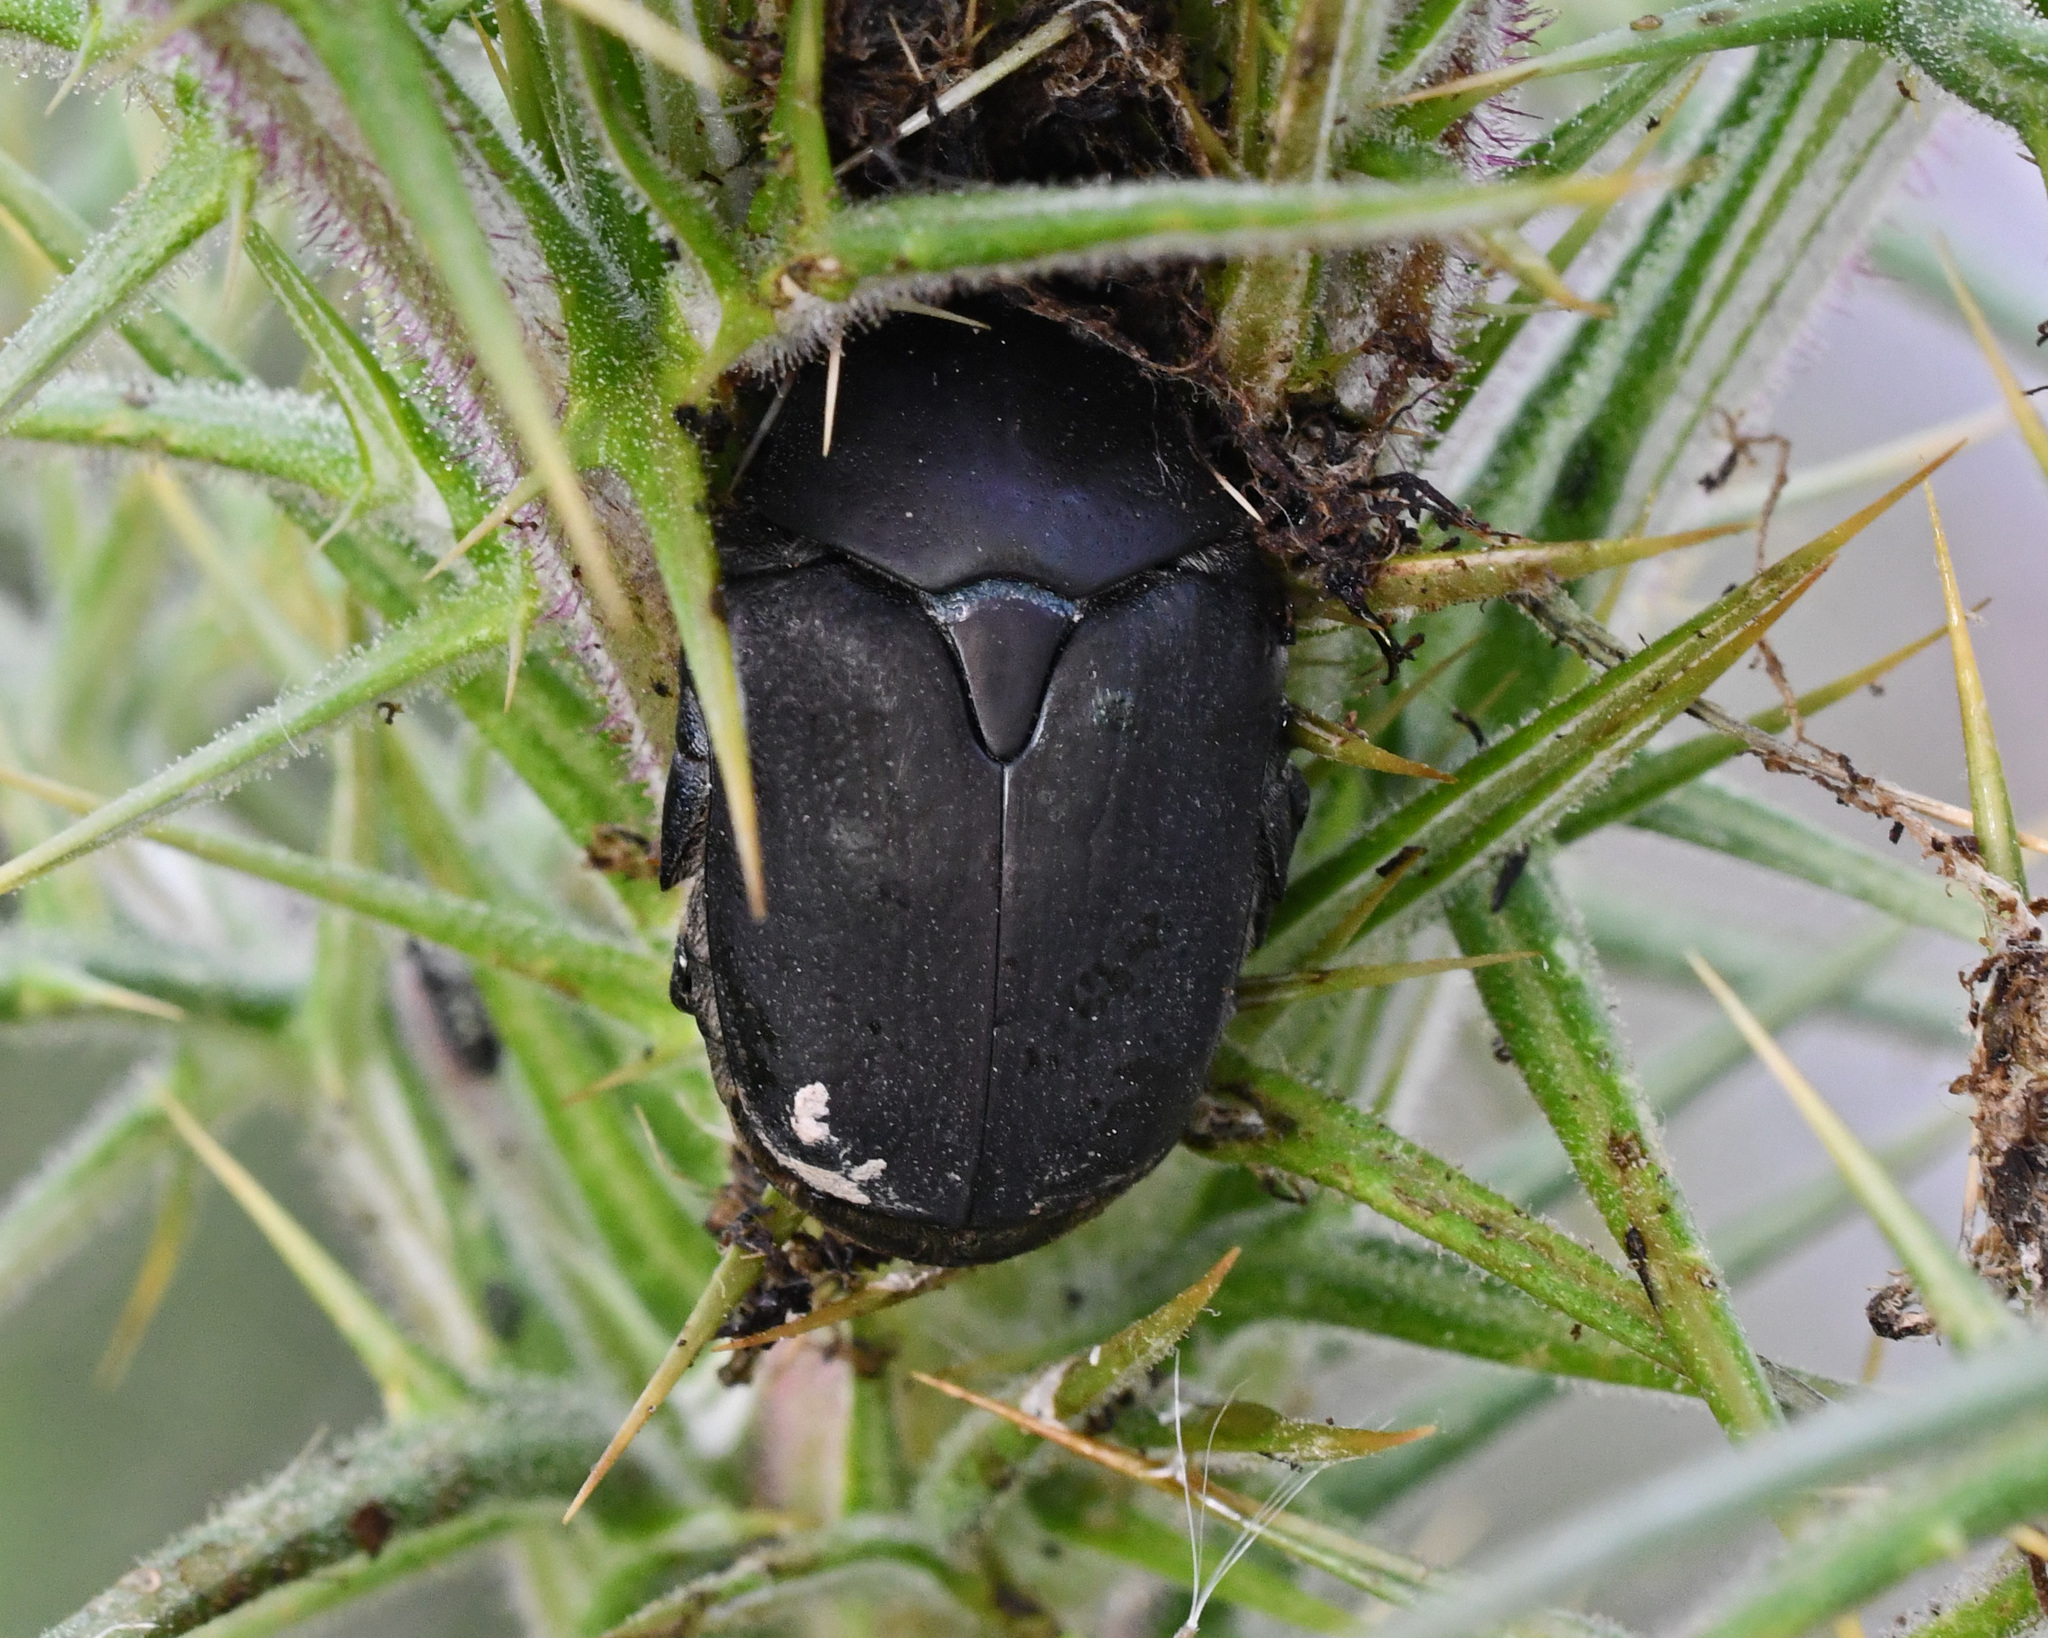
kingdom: Animalia
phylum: Arthropoda
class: Insecta
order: Coleoptera
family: Scarabaeidae
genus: Protaetia
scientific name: Protaetia afflicta
